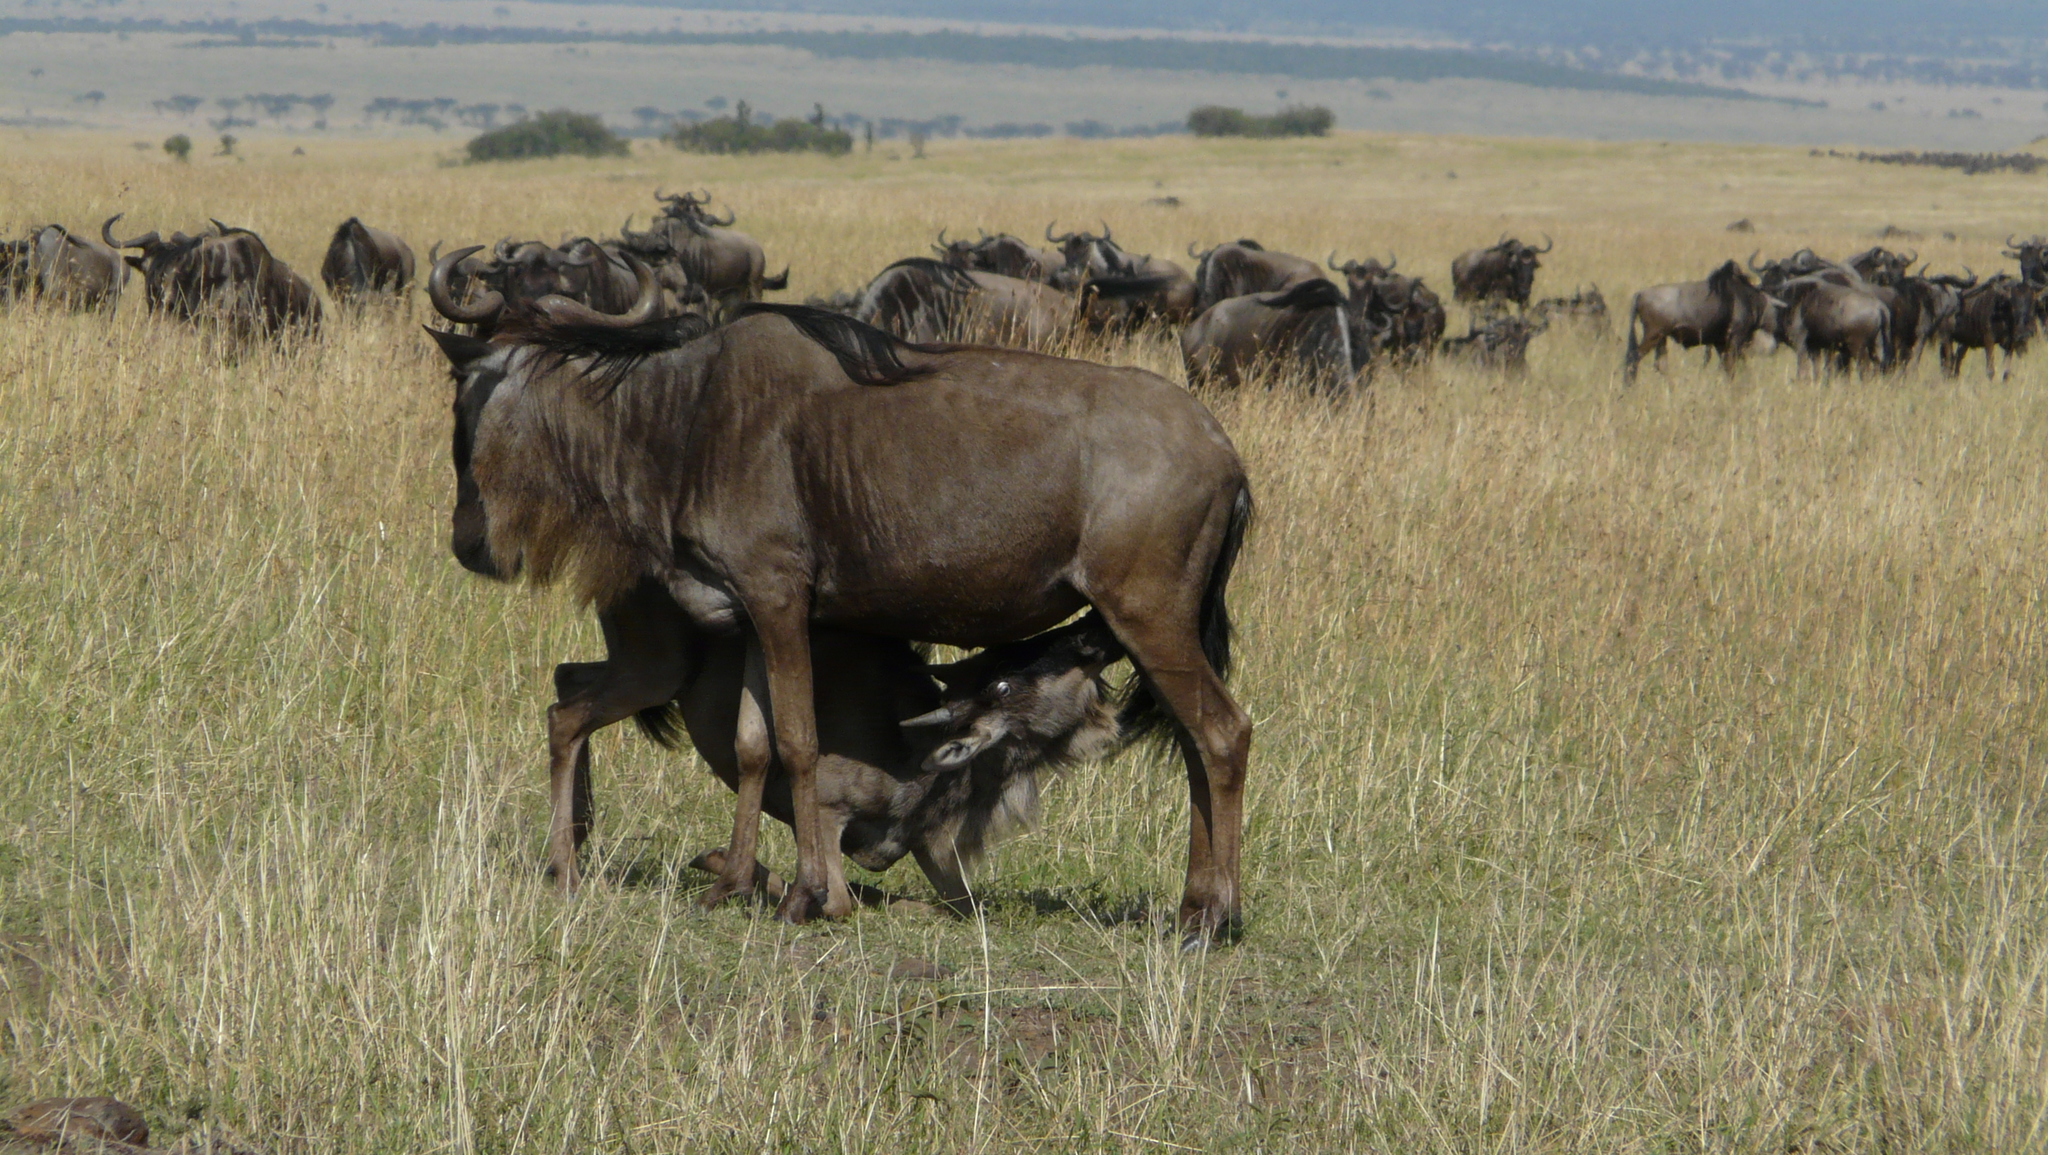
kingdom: Animalia
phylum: Chordata
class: Mammalia
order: Artiodactyla
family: Bovidae
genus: Connochaetes
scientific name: Connochaetes taurinus
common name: Blue wildebeest
